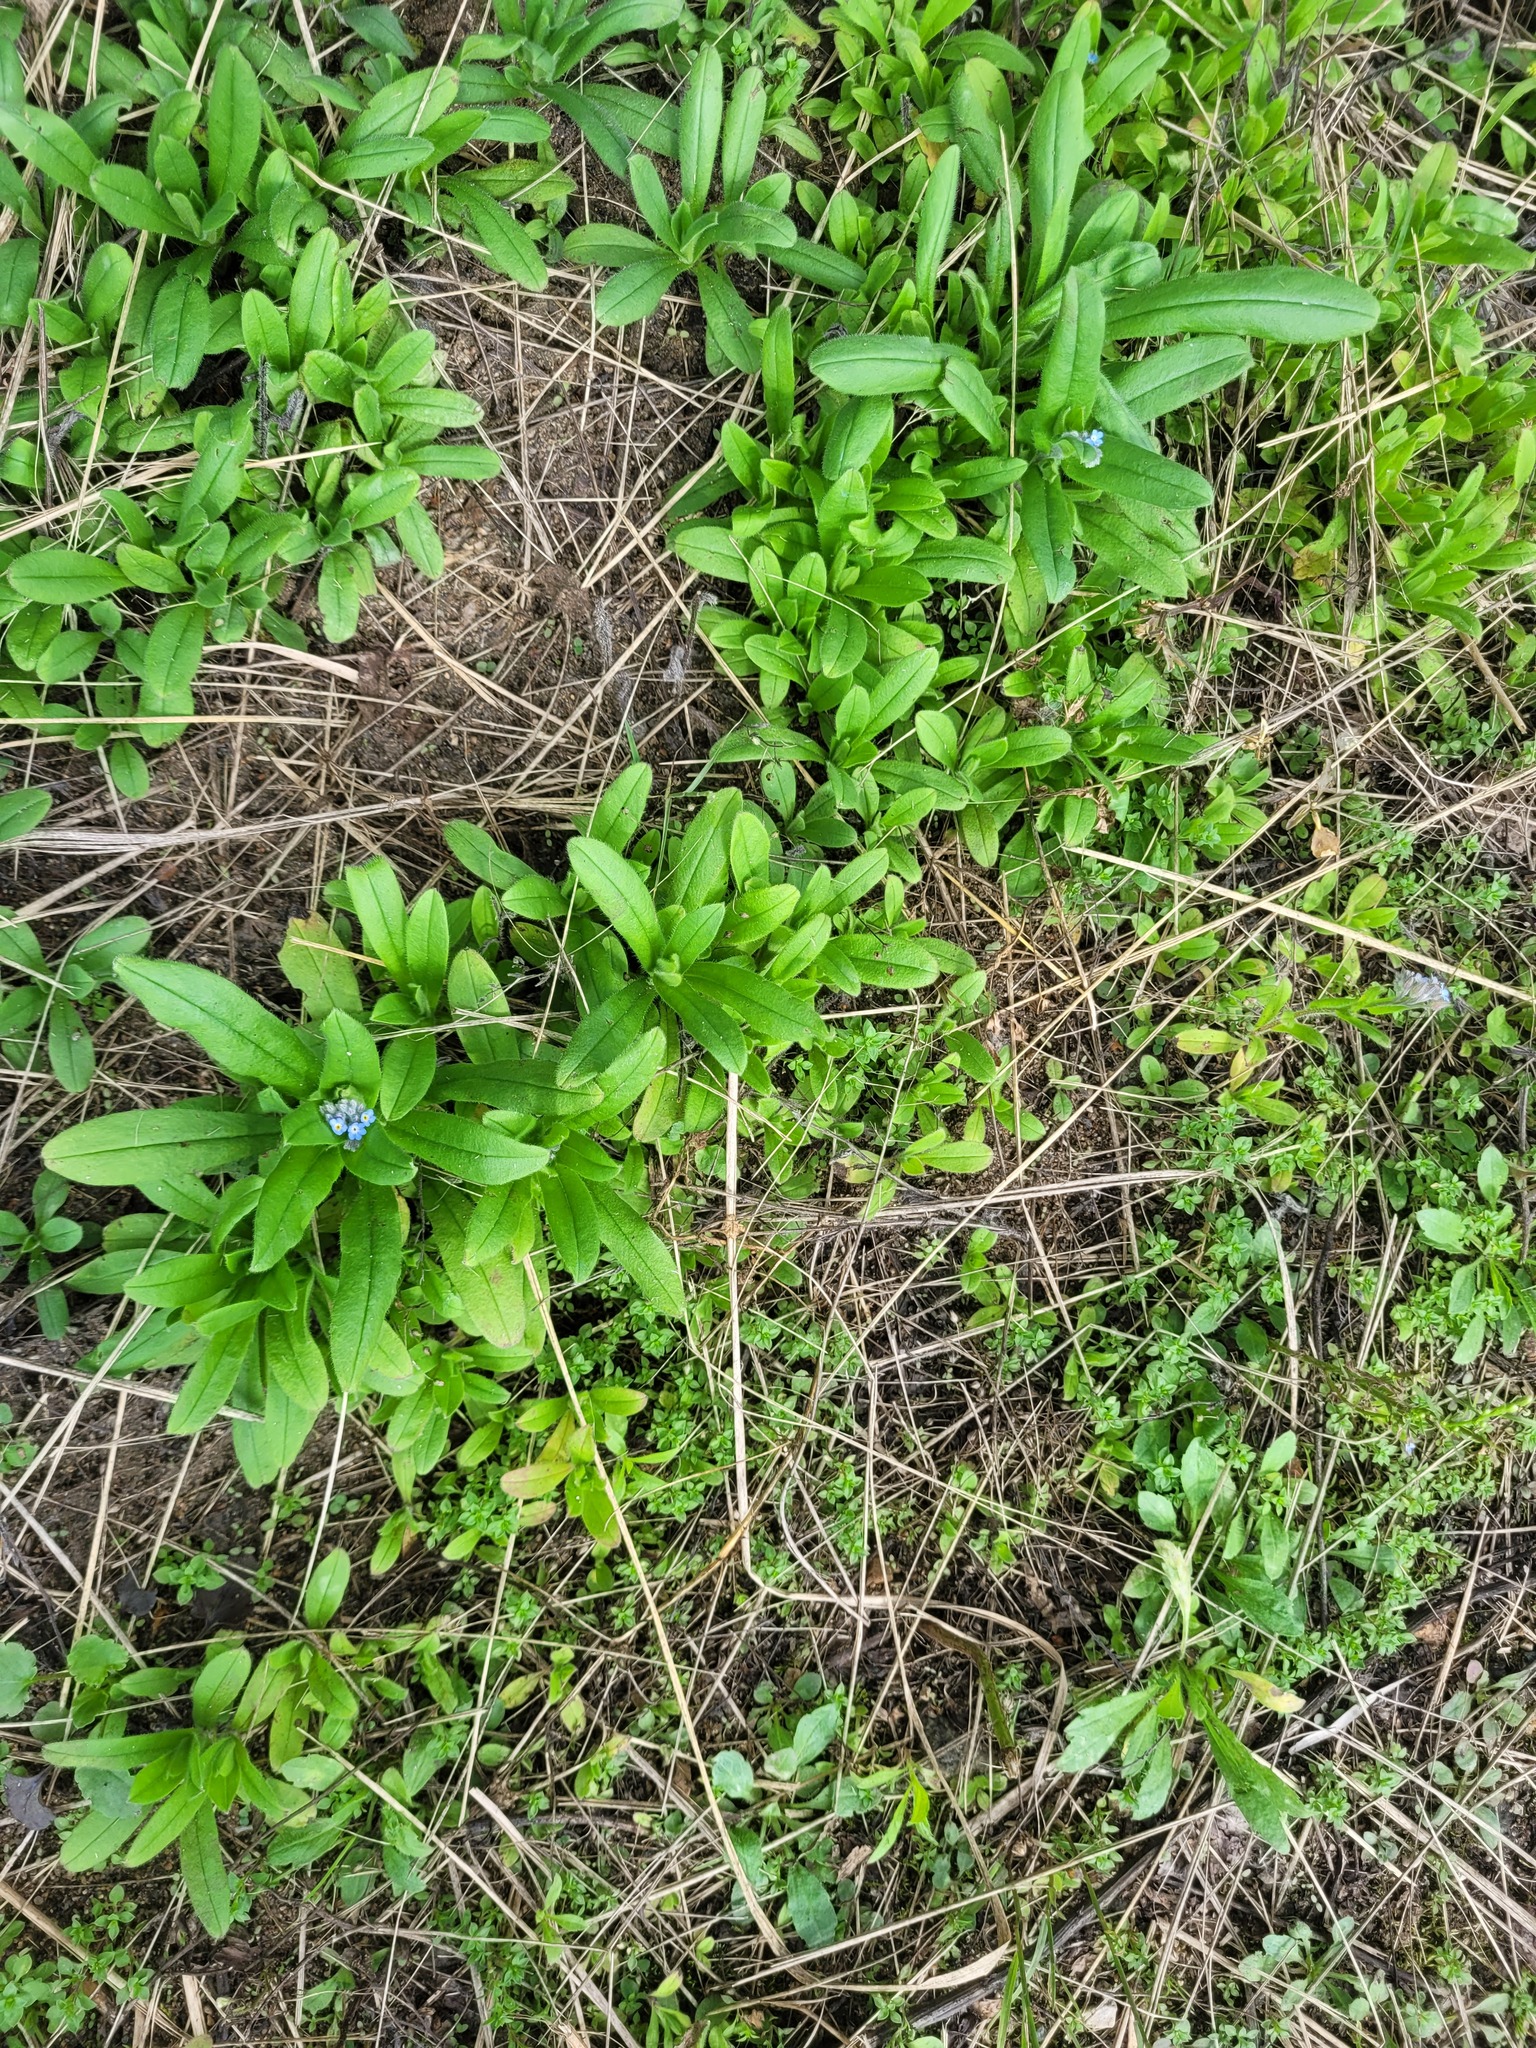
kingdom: Plantae
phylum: Tracheophyta
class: Magnoliopsida
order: Boraginales
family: Boraginaceae
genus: Myosotis
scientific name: Myosotis arvensis
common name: Field forget-me-not
